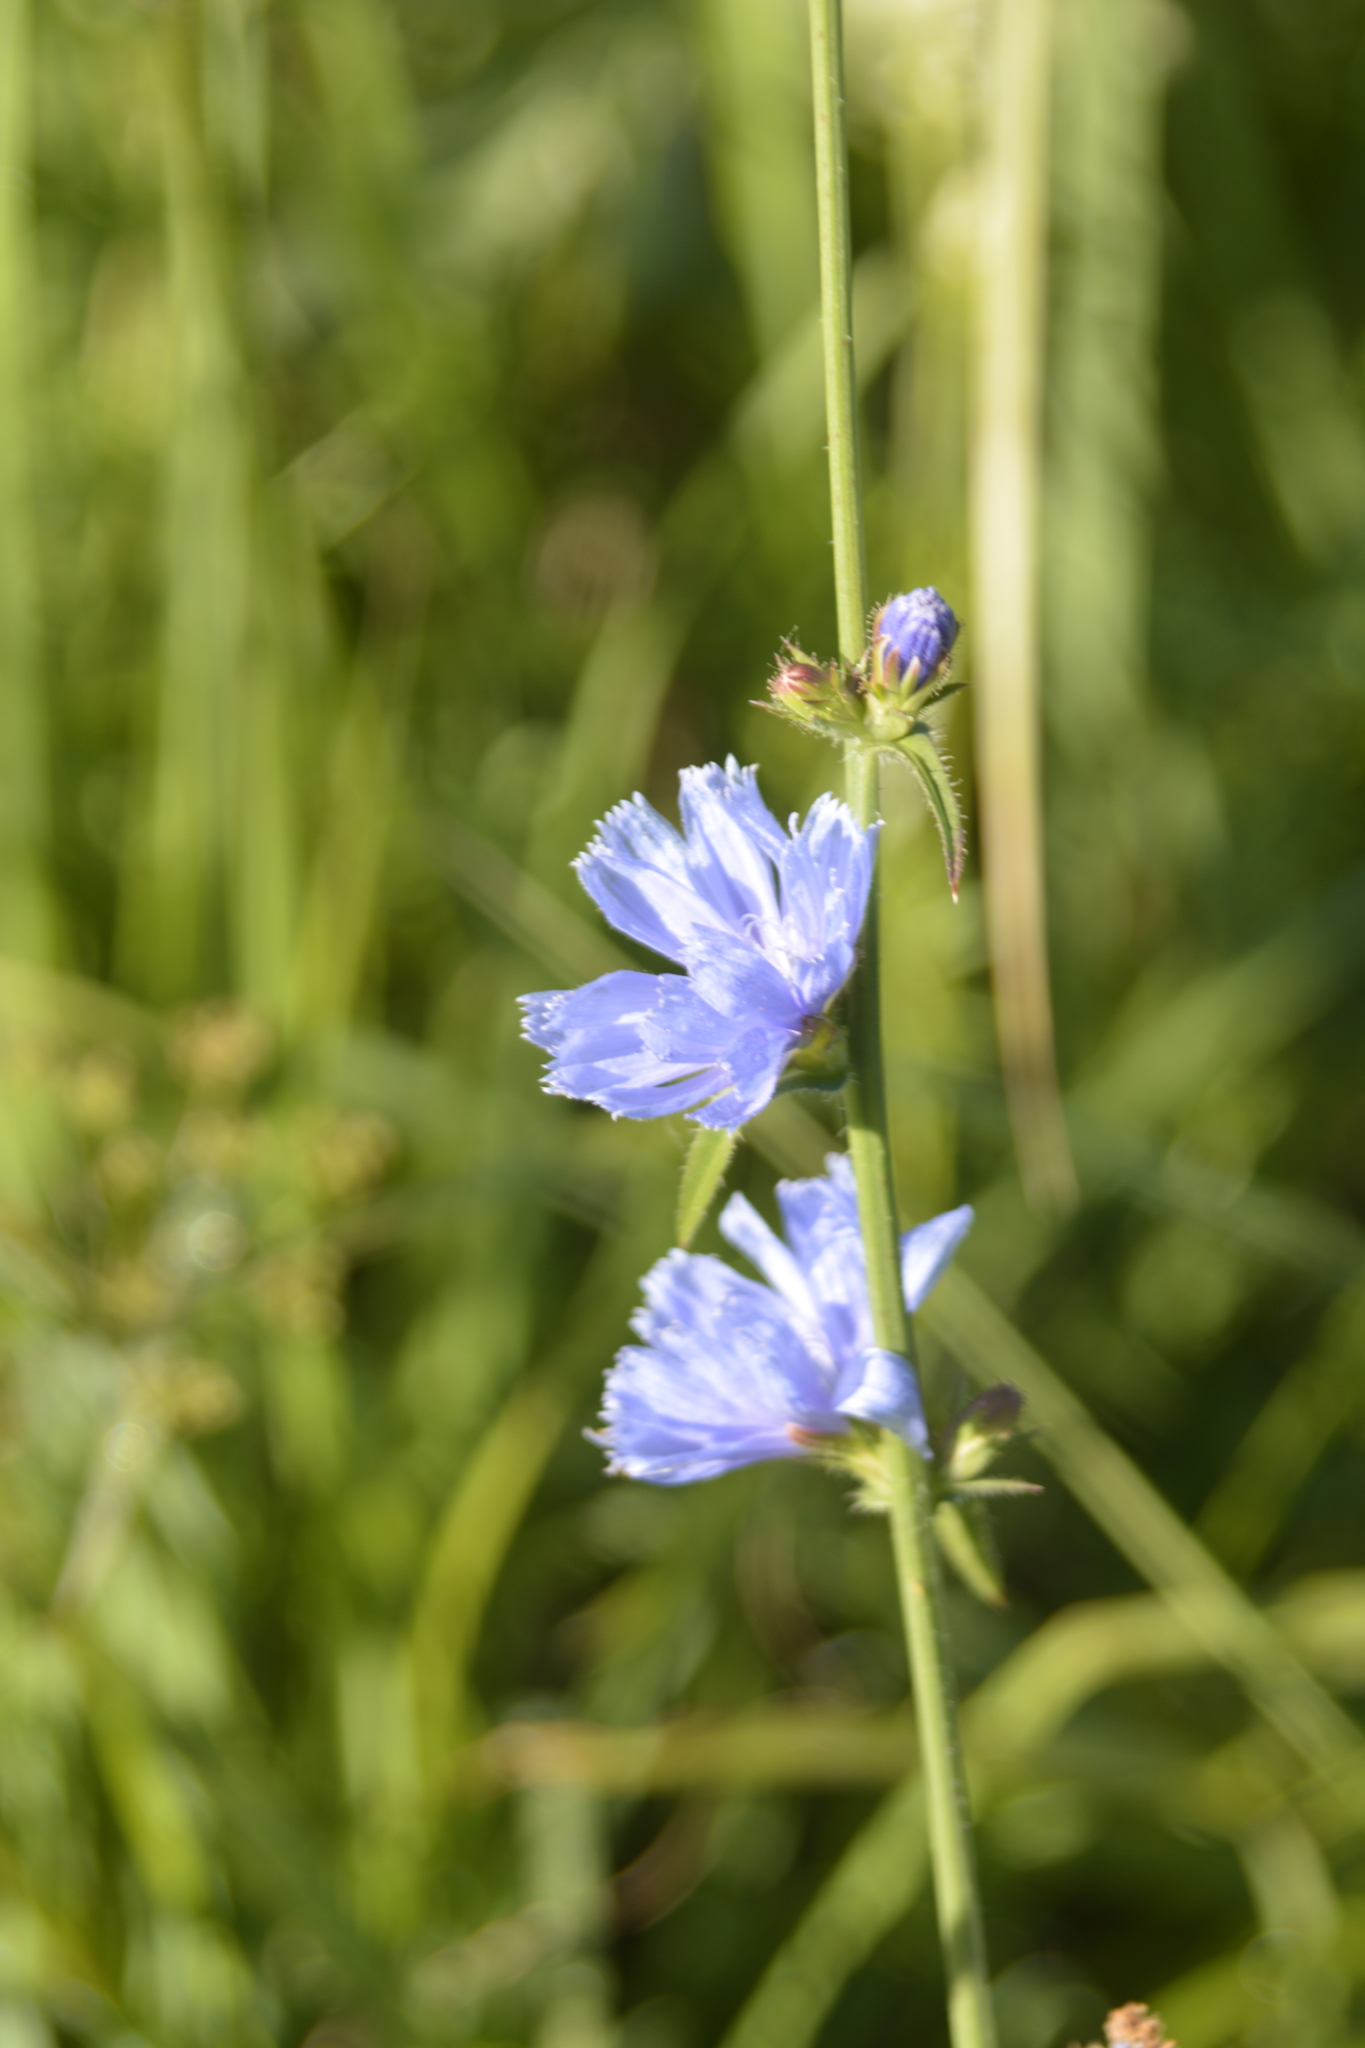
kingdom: Plantae
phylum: Tracheophyta
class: Magnoliopsida
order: Asterales
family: Asteraceae
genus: Cichorium
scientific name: Cichorium intybus
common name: Chicory
